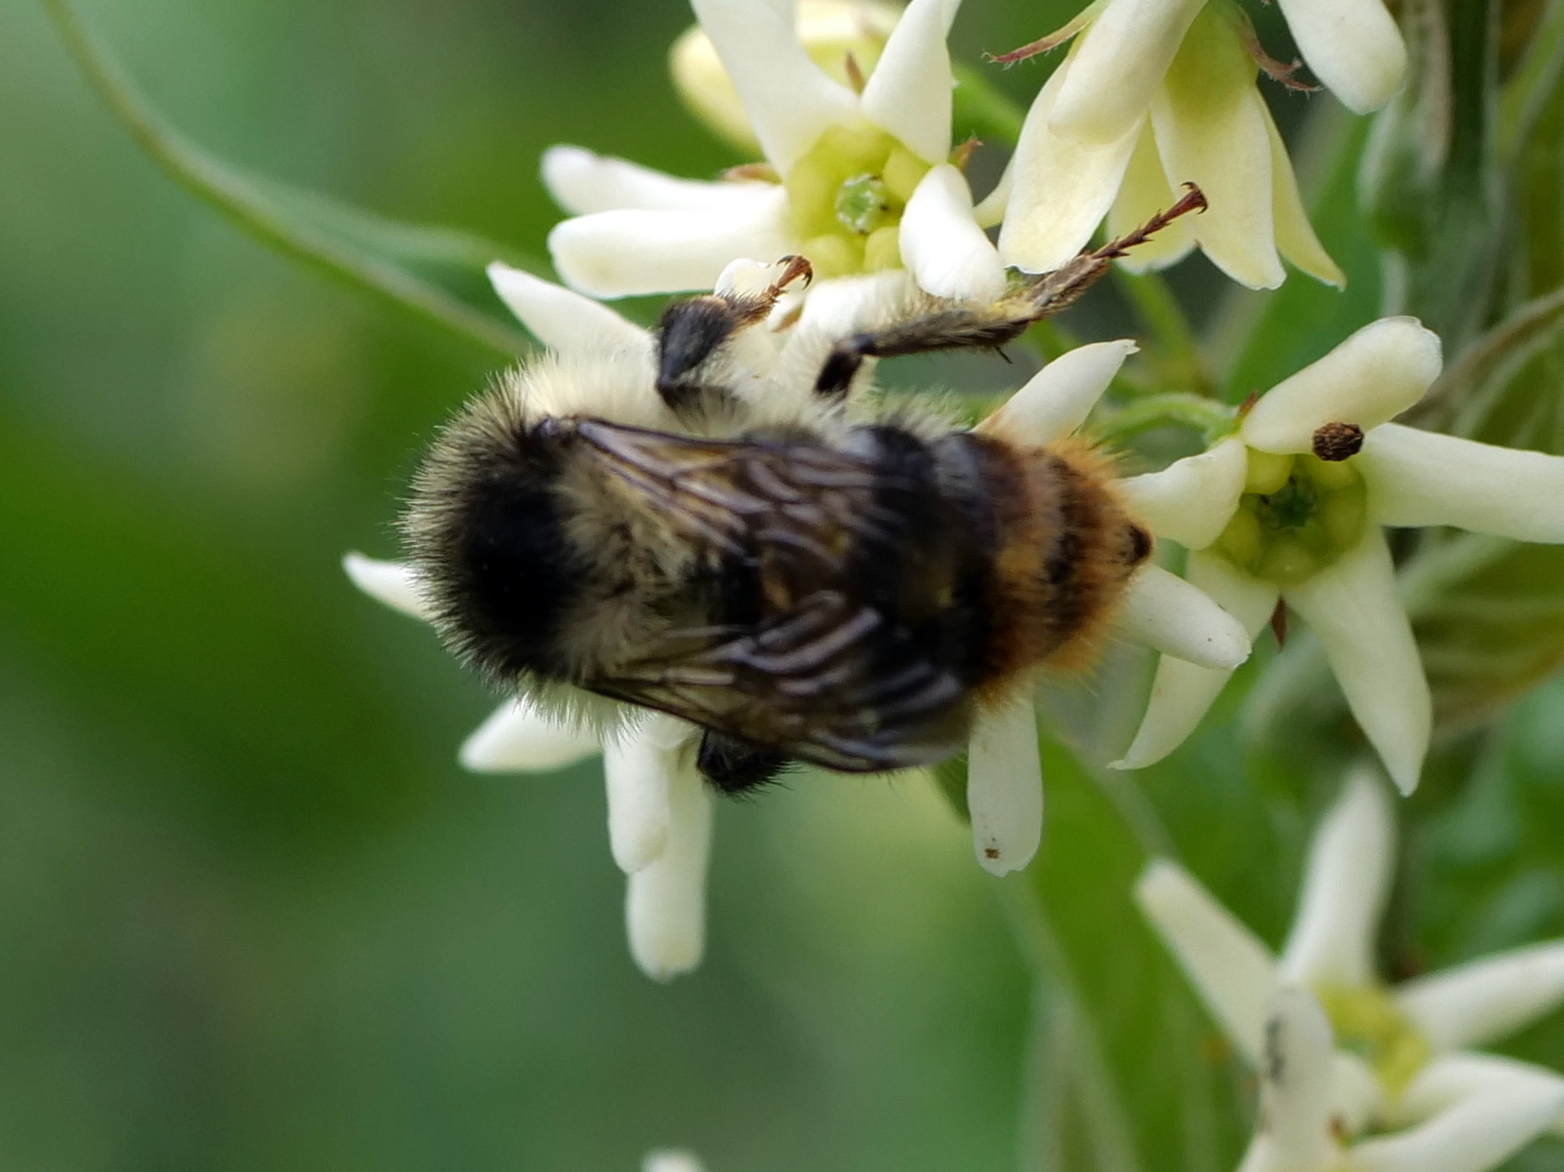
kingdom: Animalia
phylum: Arthropoda
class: Insecta
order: Hymenoptera
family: Apidae
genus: Bombus
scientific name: Bombus sylvarum
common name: Shrill carder bee
